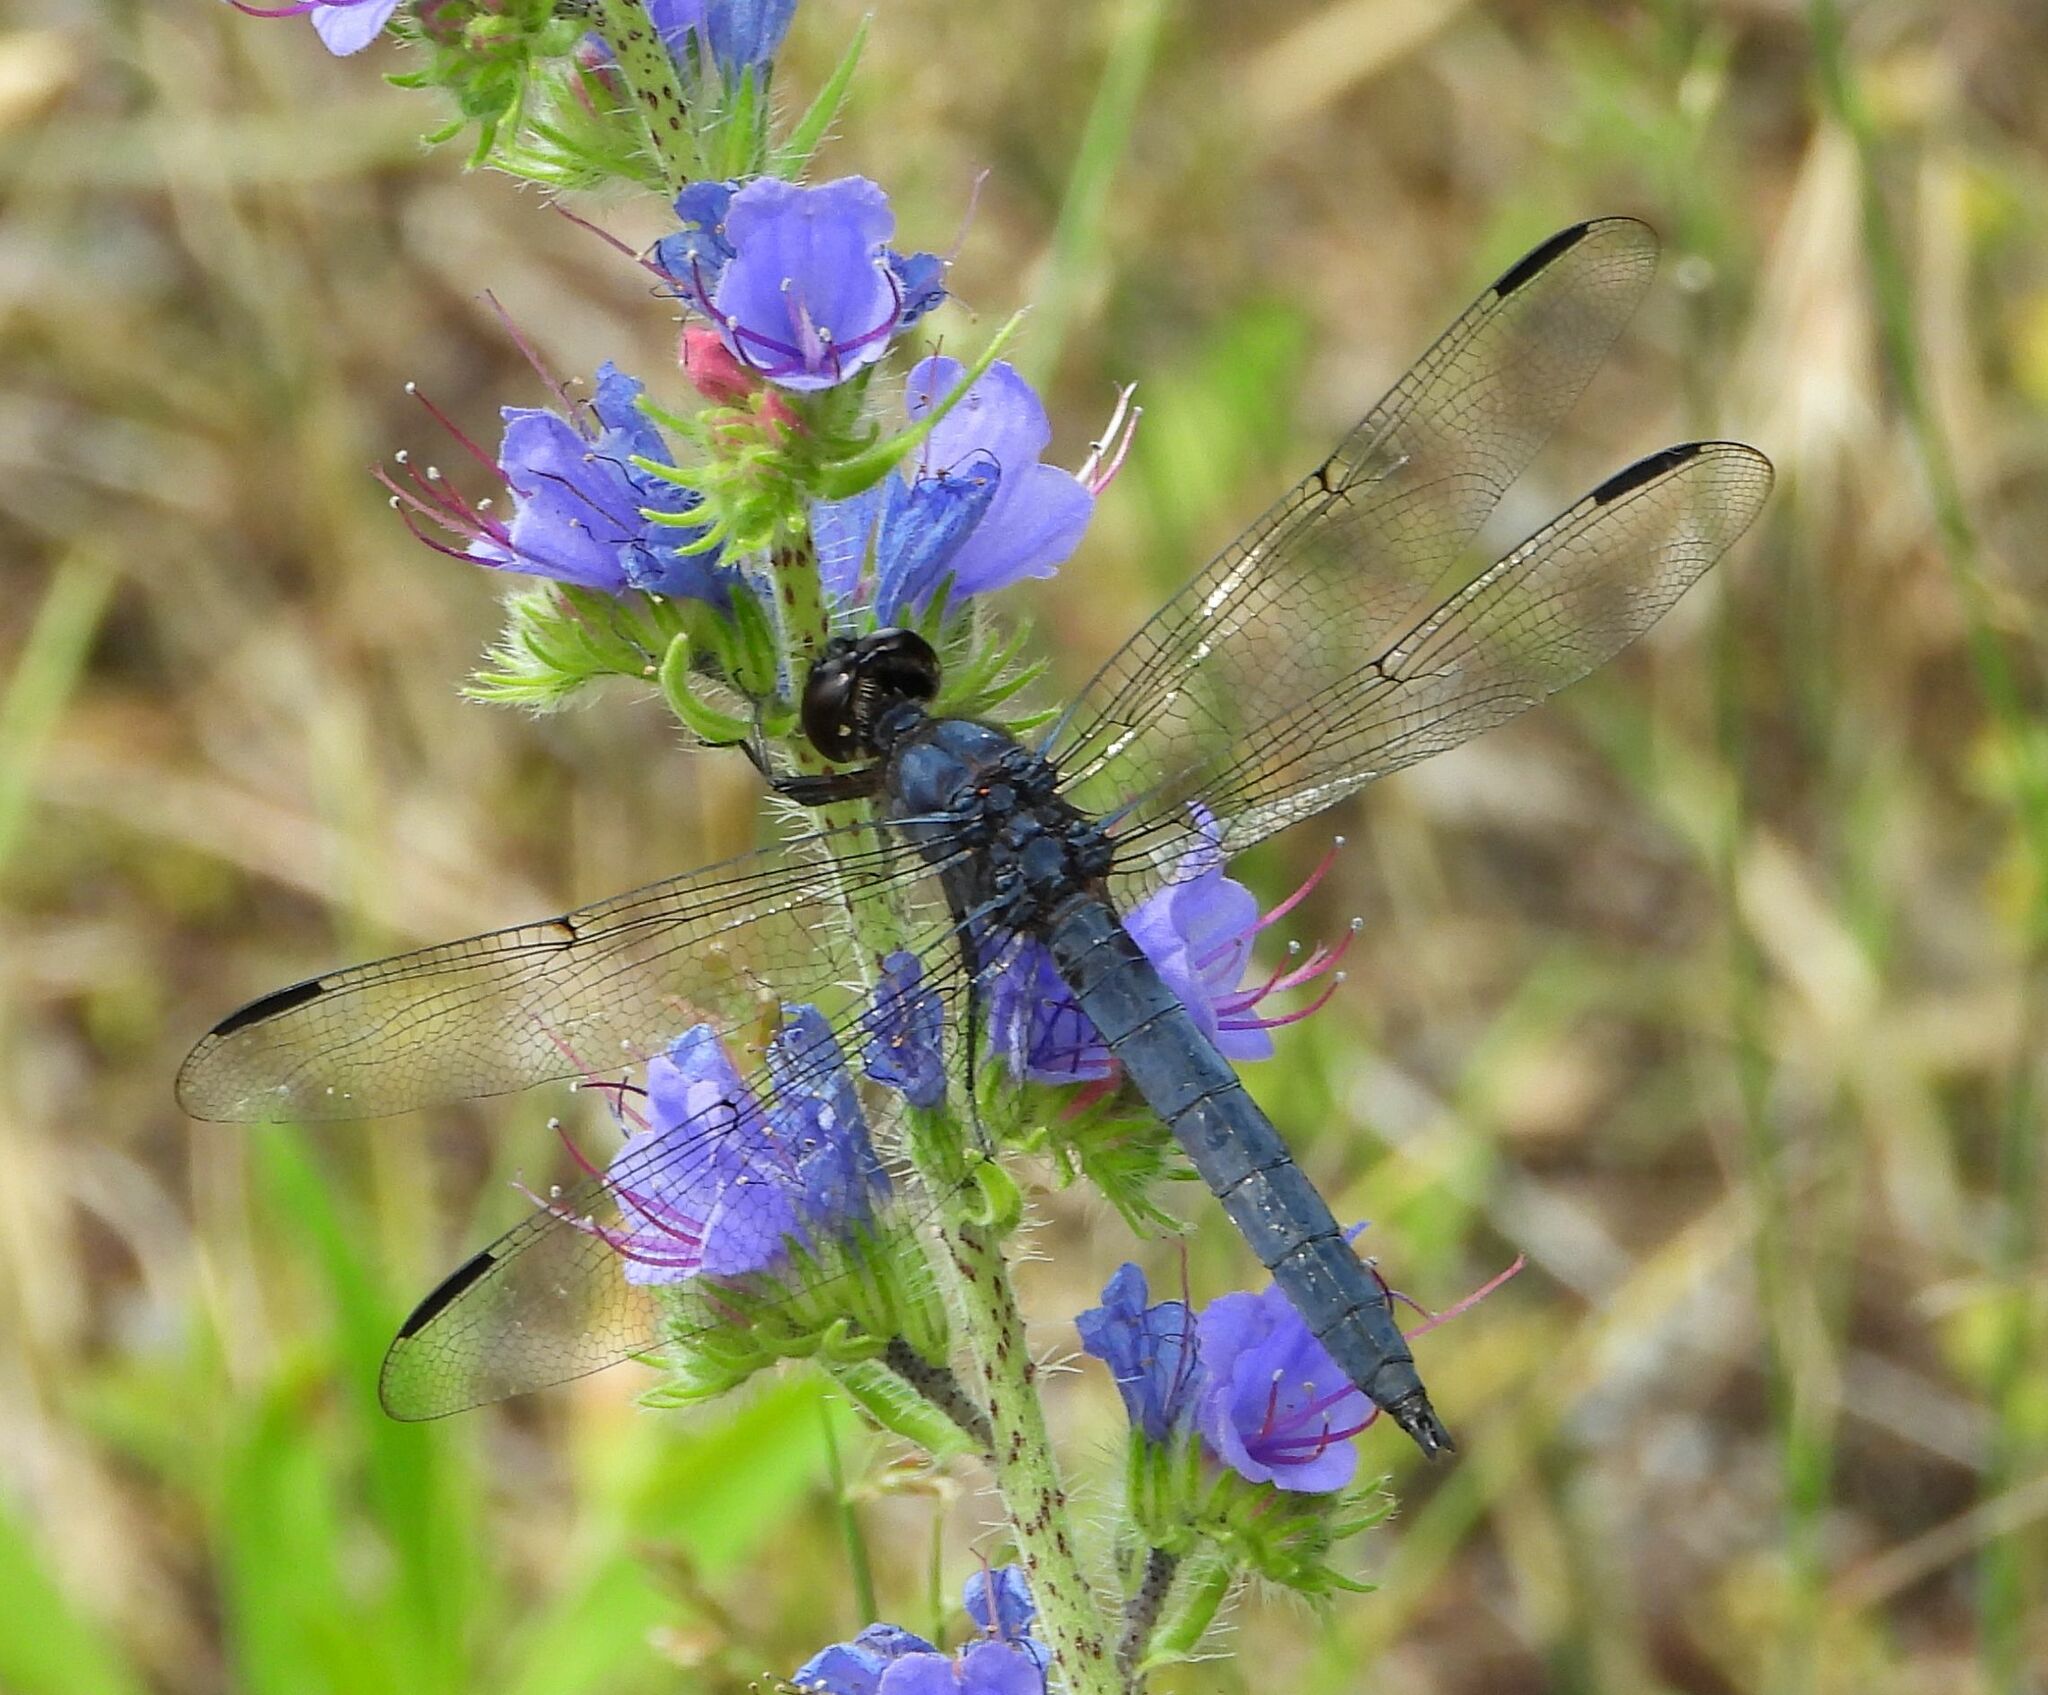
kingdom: Animalia
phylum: Arthropoda
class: Insecta
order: Odonata
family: Libellulidae
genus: Libellula
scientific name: Libellula incesta
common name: Slaty skimmer
